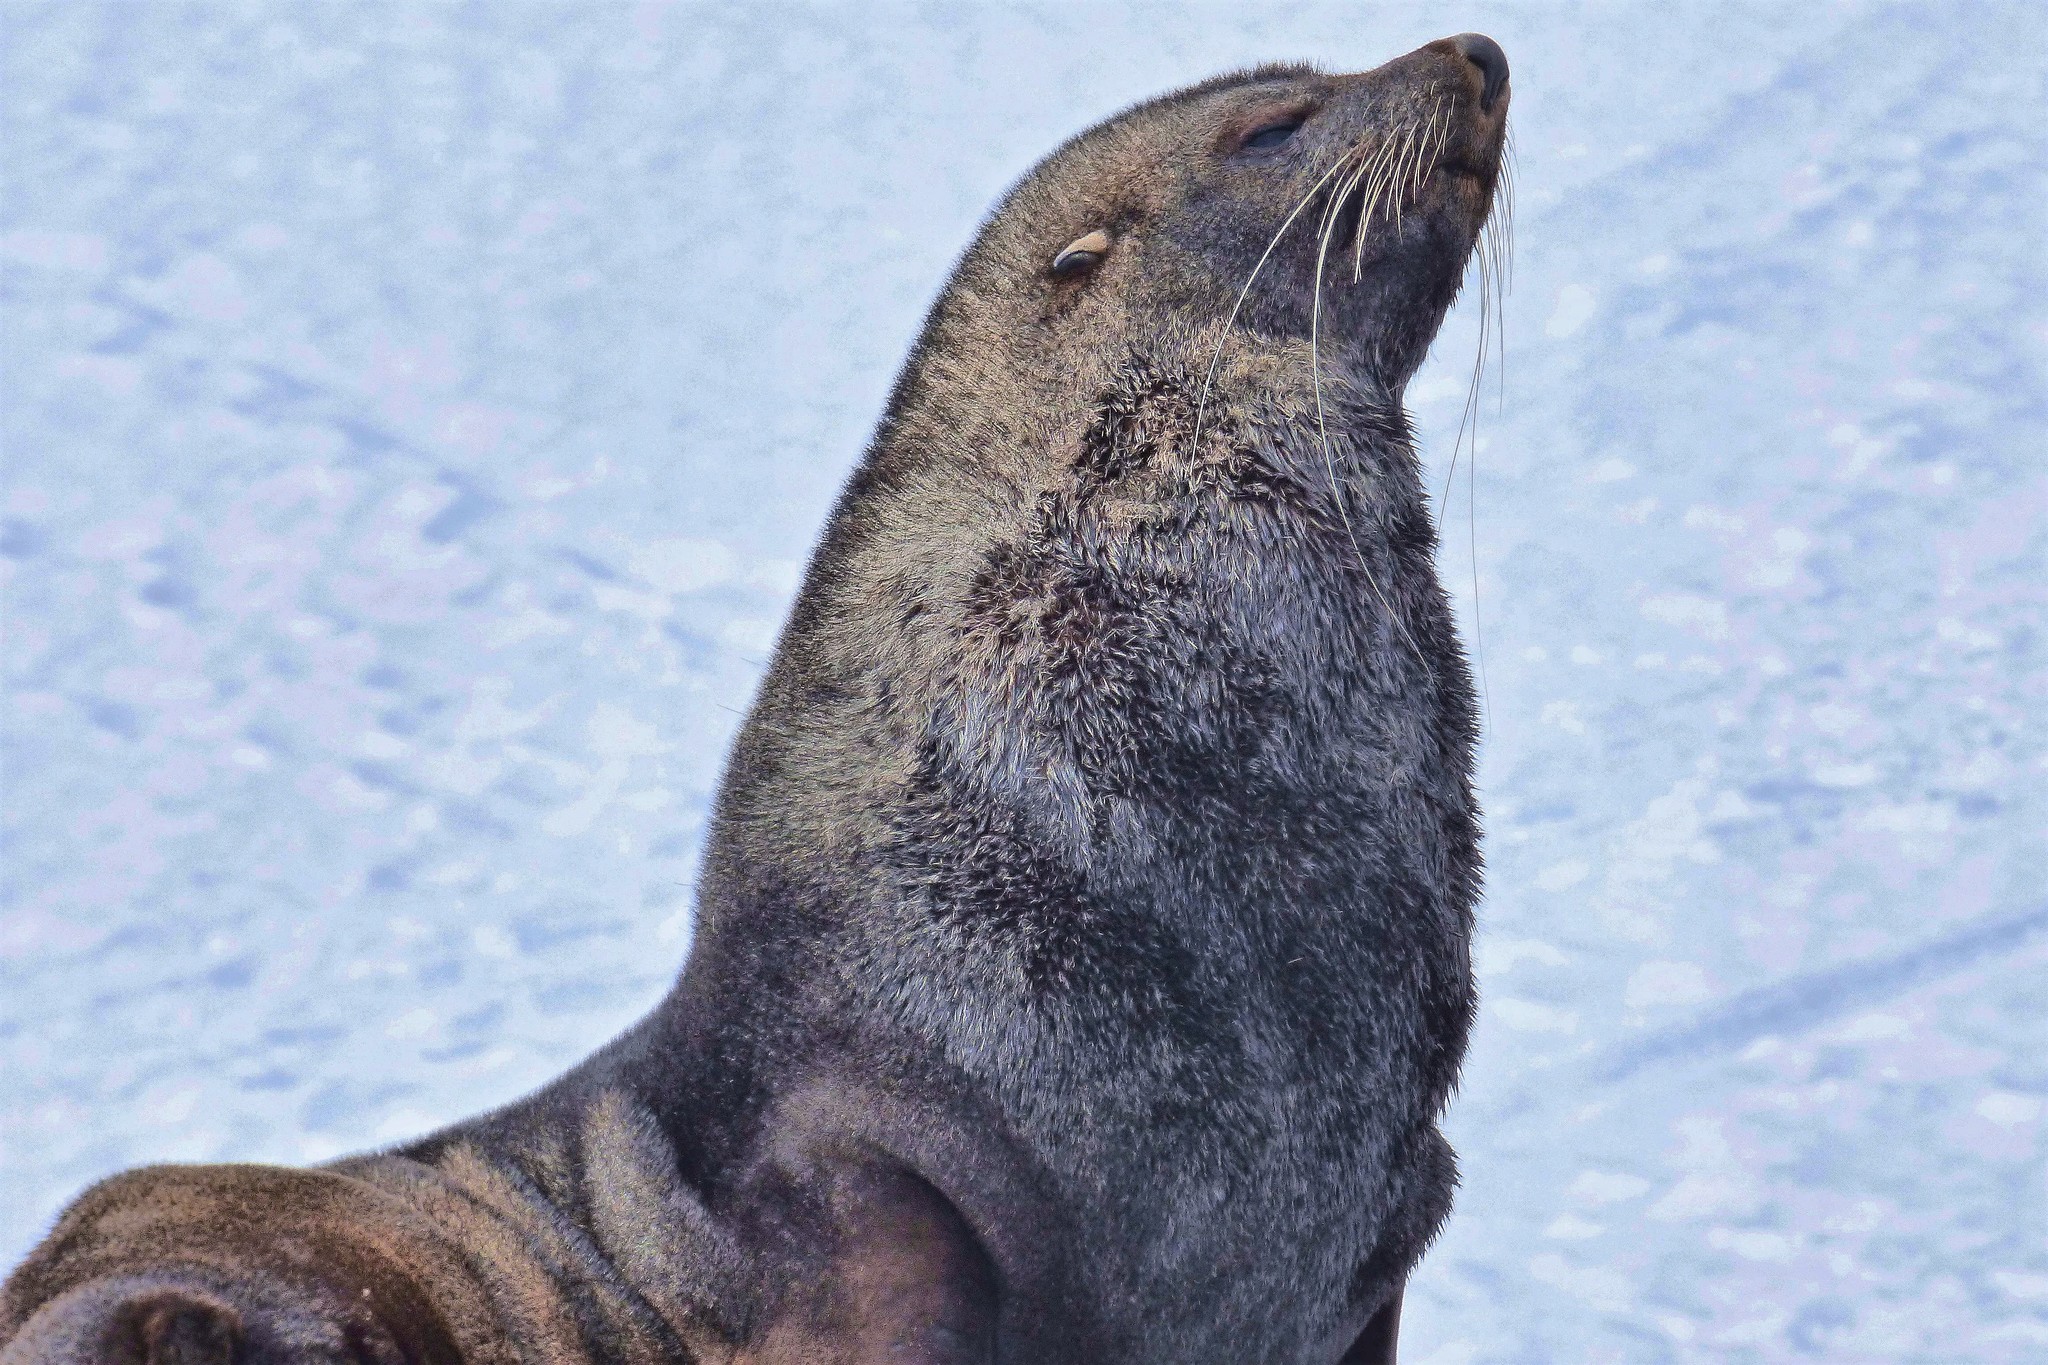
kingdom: Animalia
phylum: Chordata
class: Mammalia
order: Carnivora
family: Otariidae
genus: Arctocephalus
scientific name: Arctocephalus gazella
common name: Antarctic fur seal
